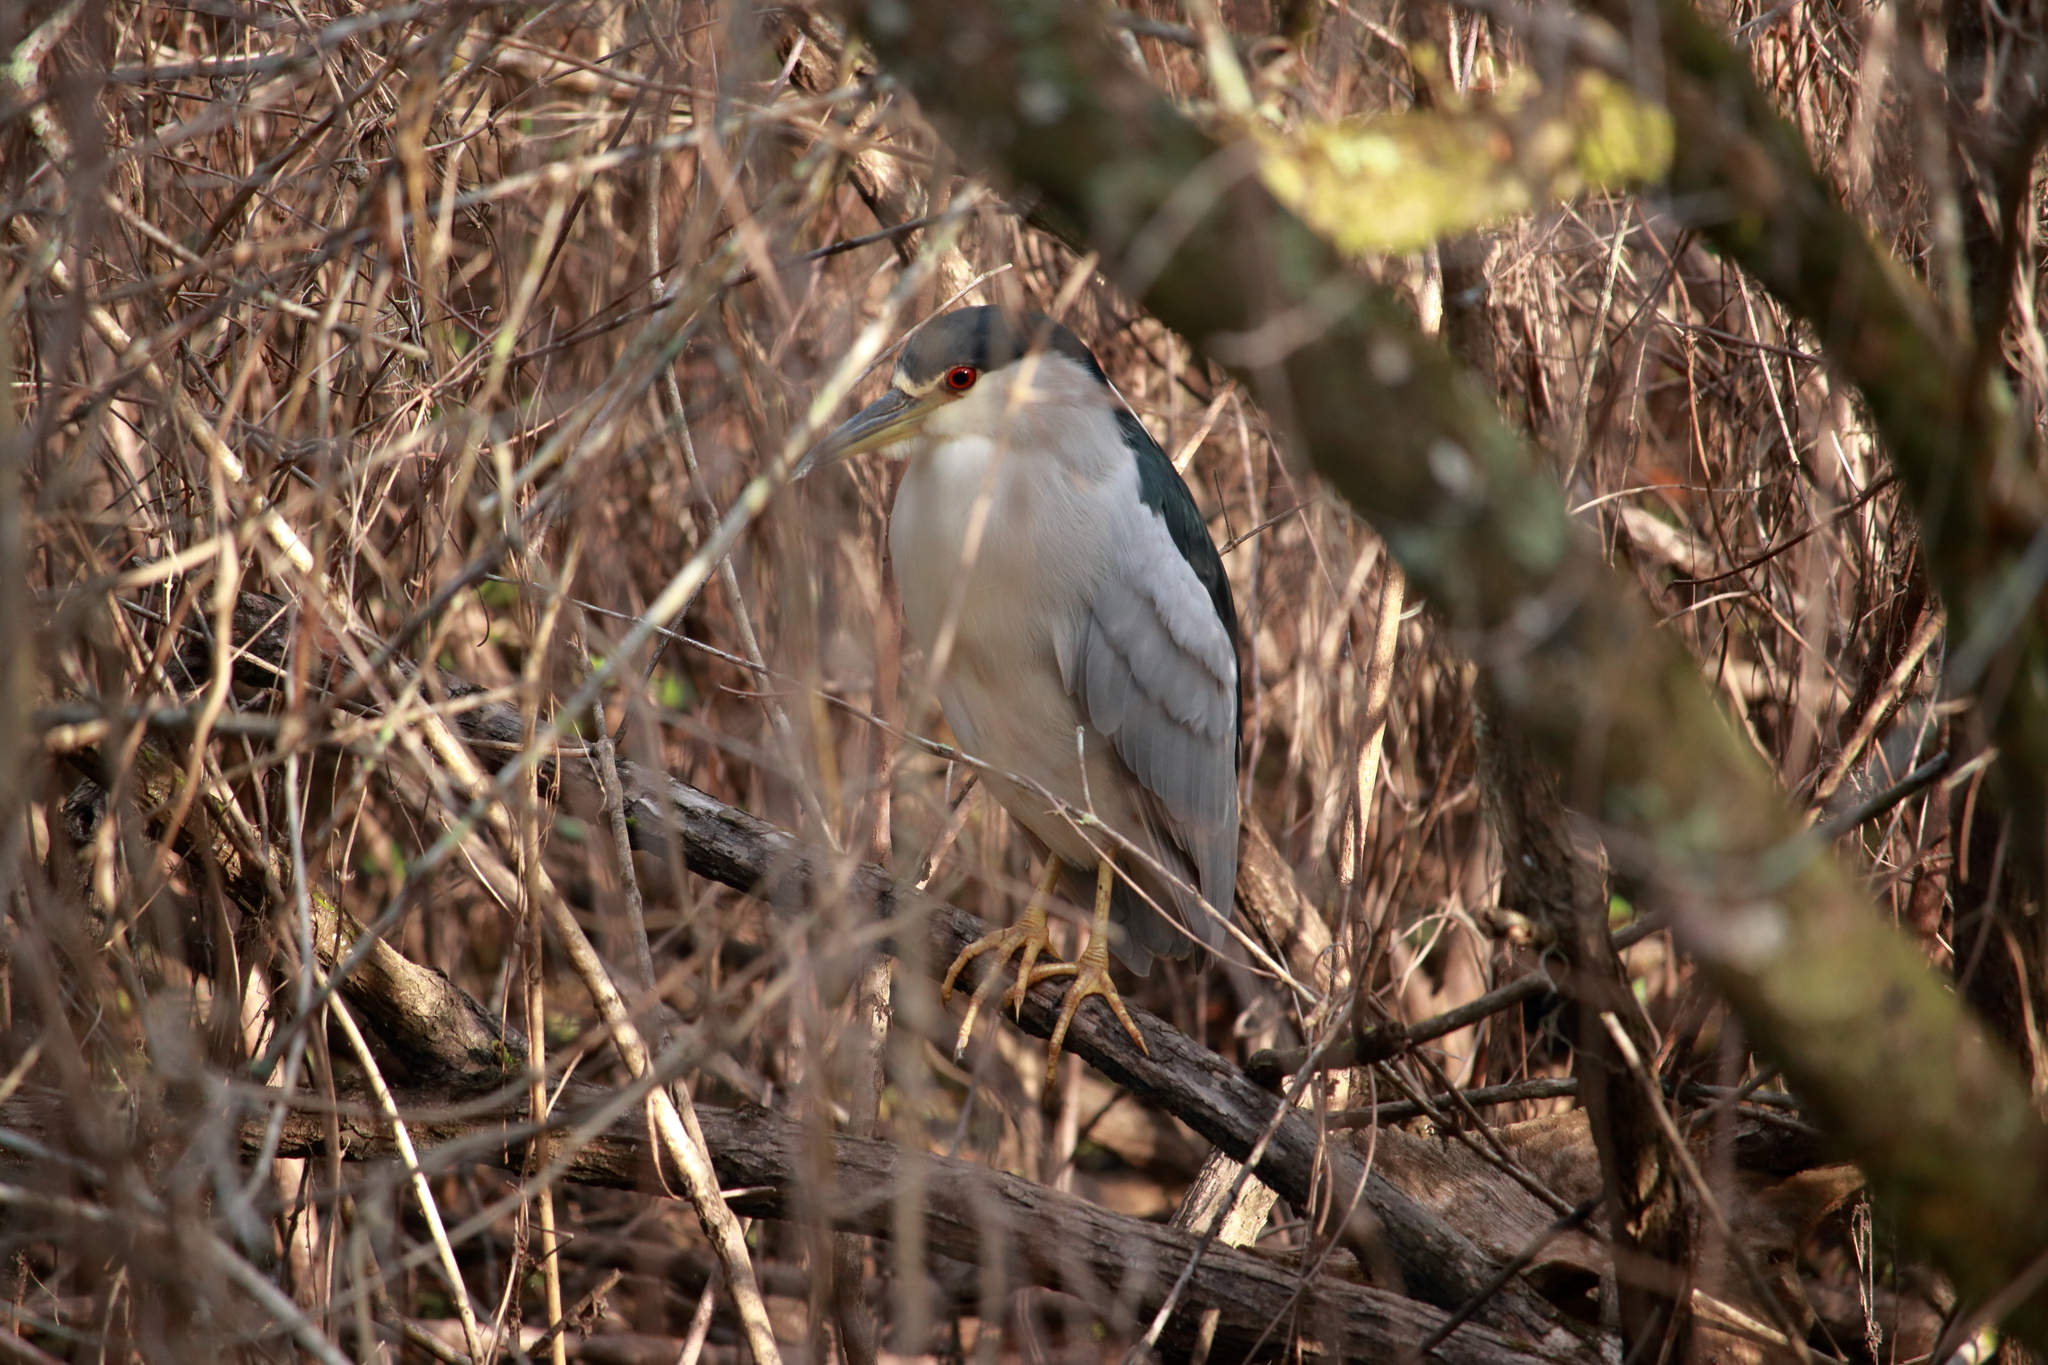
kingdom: Animalia
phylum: Chordata
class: Aves
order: Pelecaniformes
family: Ardeidae
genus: Nycticorax
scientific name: Nycticorax nycticorax
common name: Black-crowned night heron
